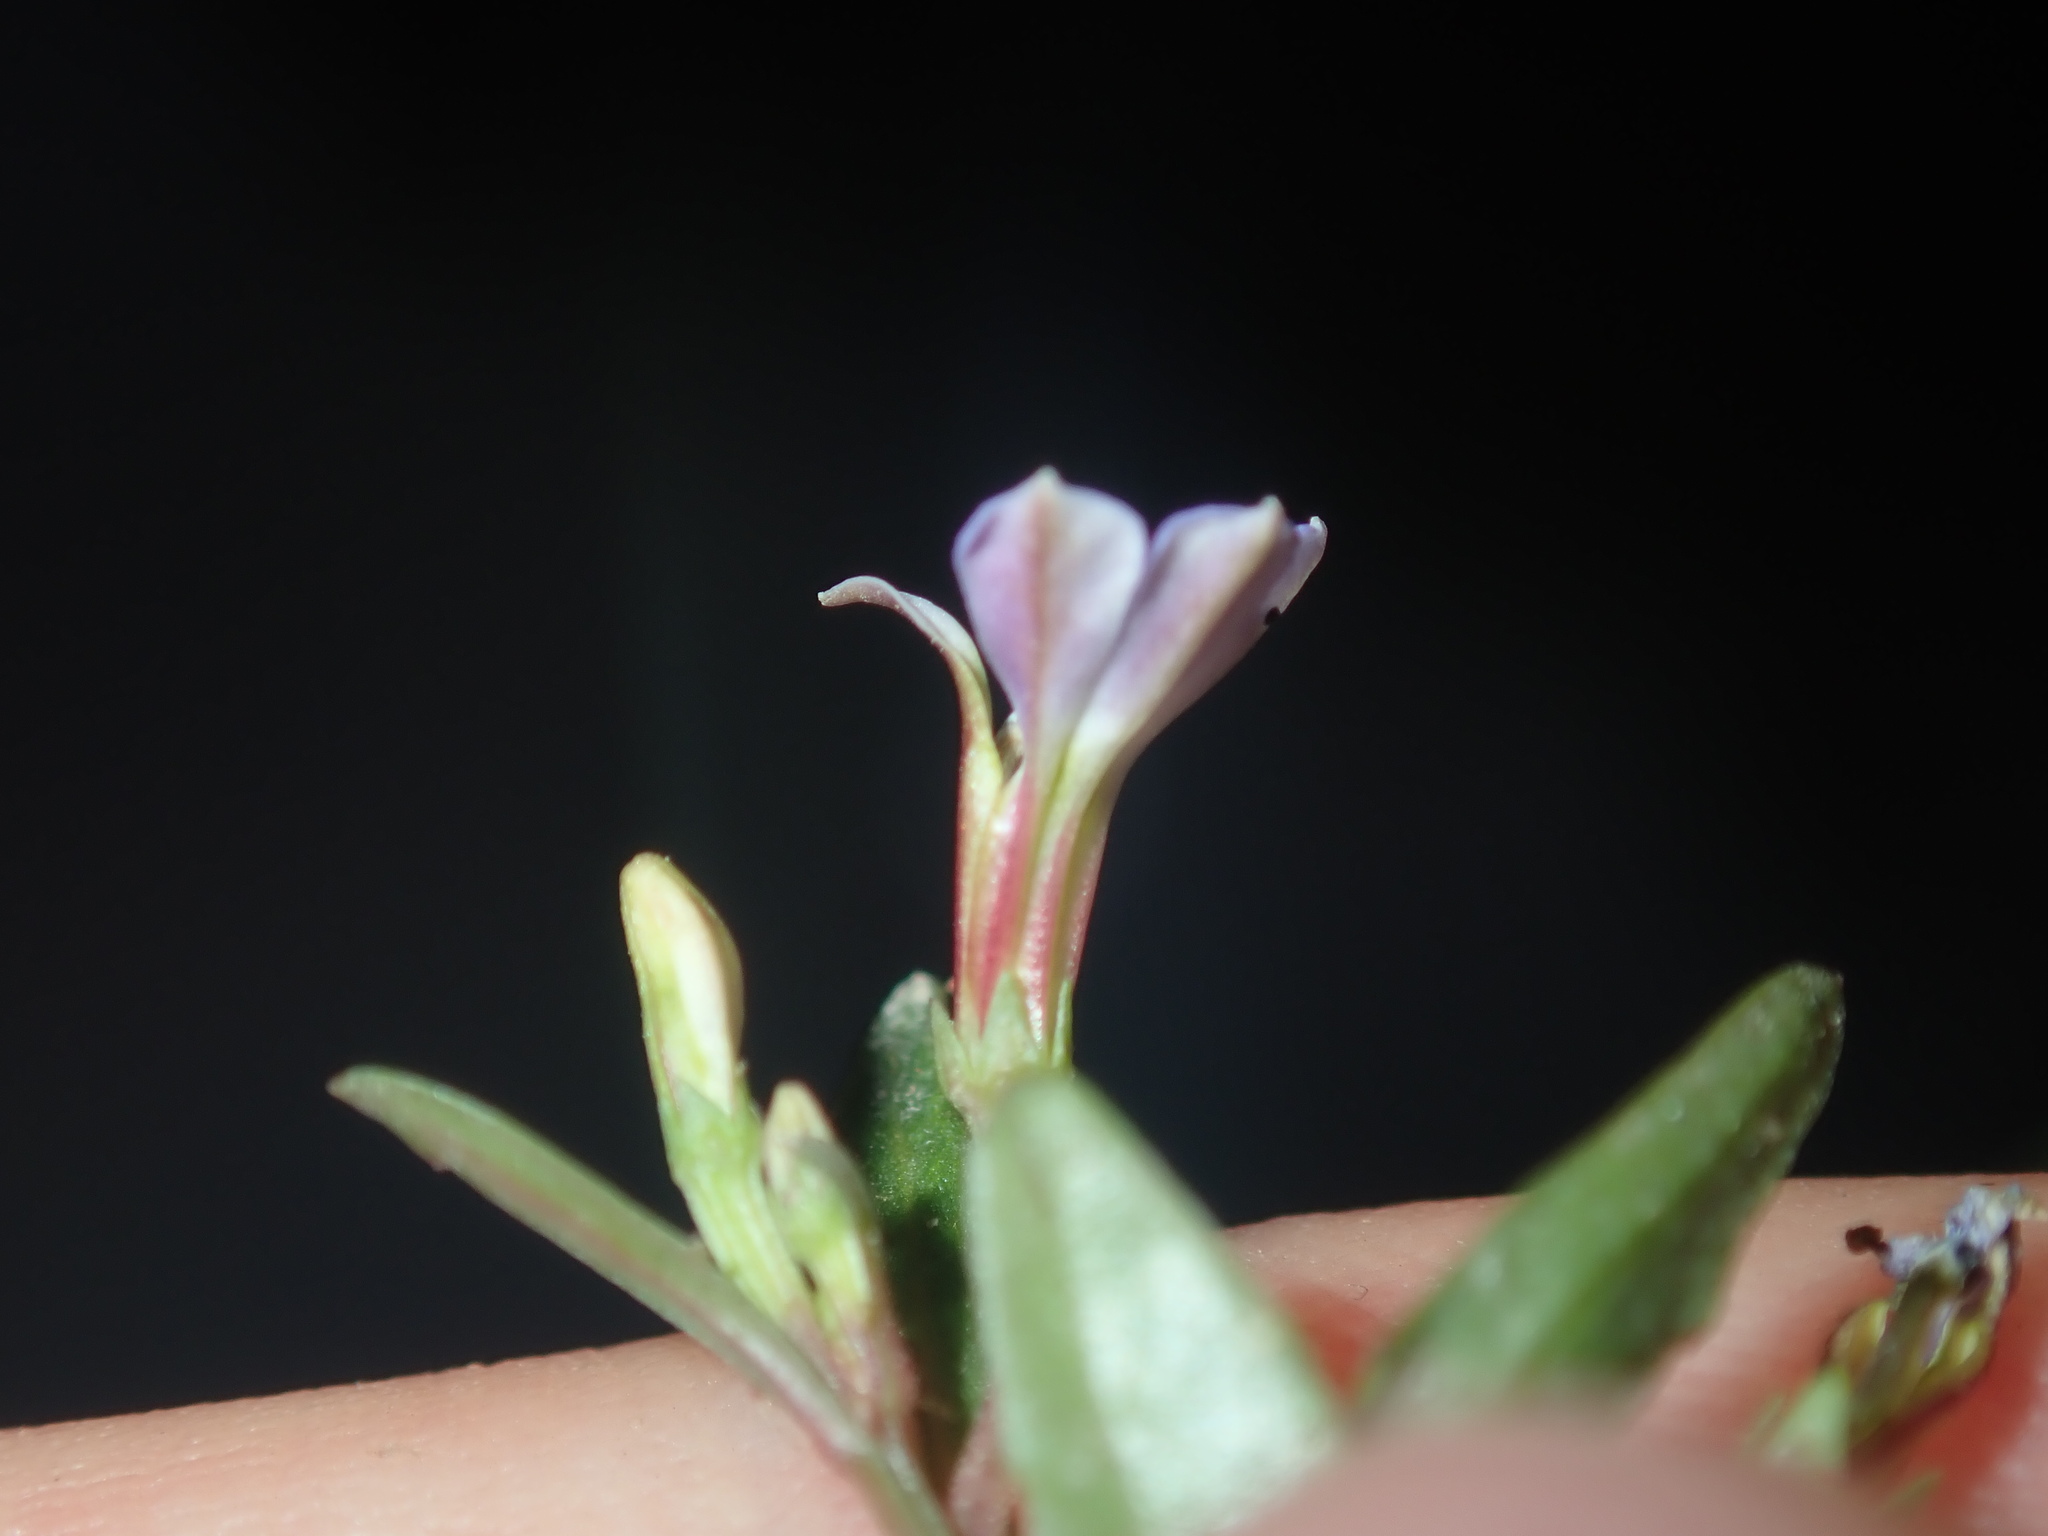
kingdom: Plantae
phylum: Tracheophyta
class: Magnoliopsida
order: Asterales
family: Campanulaceae
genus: Lobelia
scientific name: Lobelia anceps
